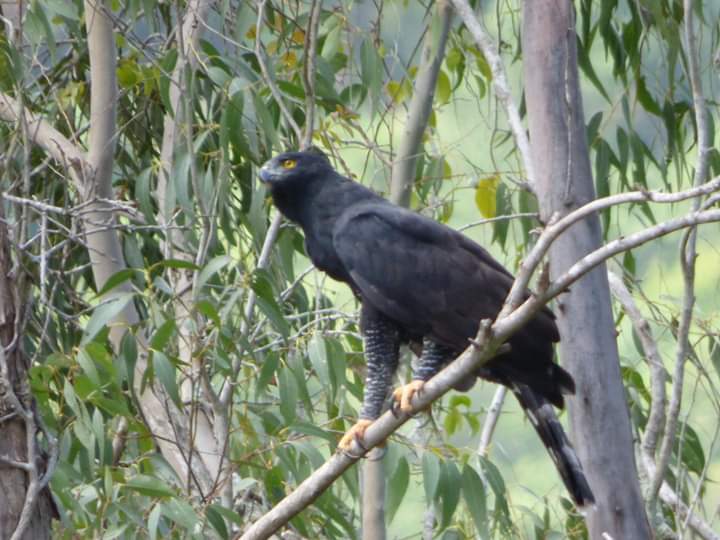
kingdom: Animalia
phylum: Chordata
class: Aves
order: Accipitriformes
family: Accipitridae
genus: Spizaetus
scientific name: Spizaetus tyrannus
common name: Black hawk-eagle
